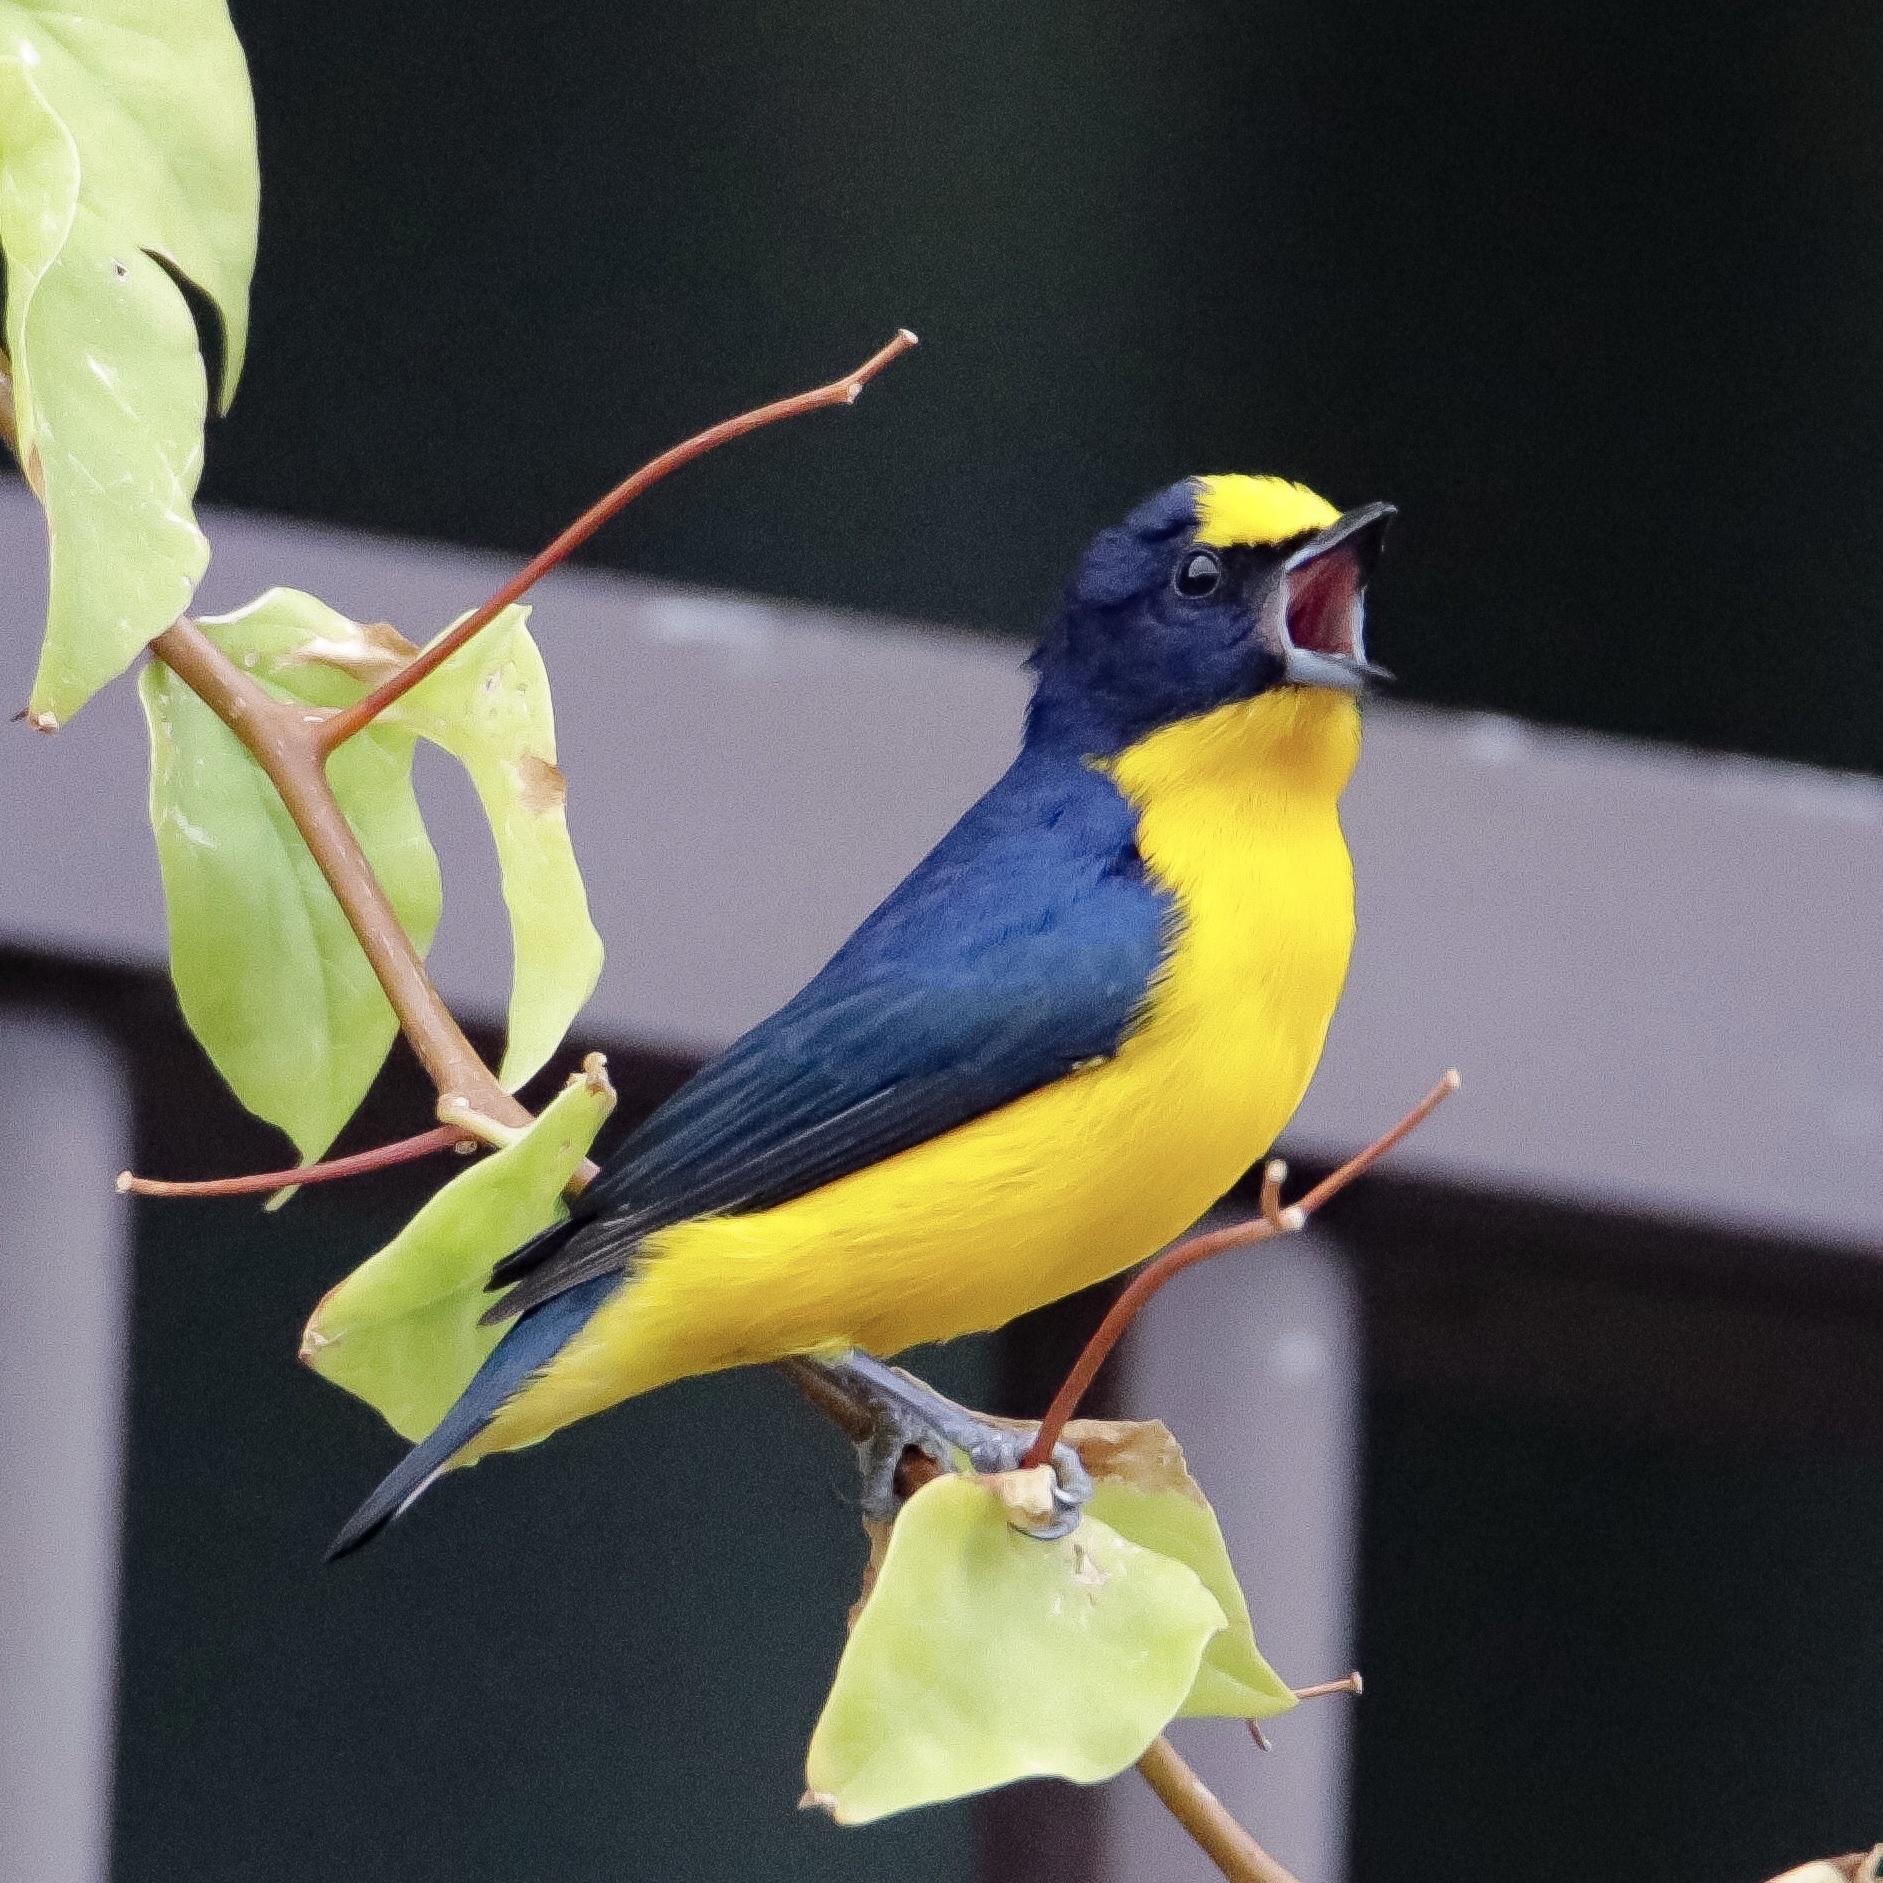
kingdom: Animalia
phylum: Chordata
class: Aves
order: Passeriformes
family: Fringillidae
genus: Euphonia
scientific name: Euphonia laniirostris
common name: Thick-billed euphonia
